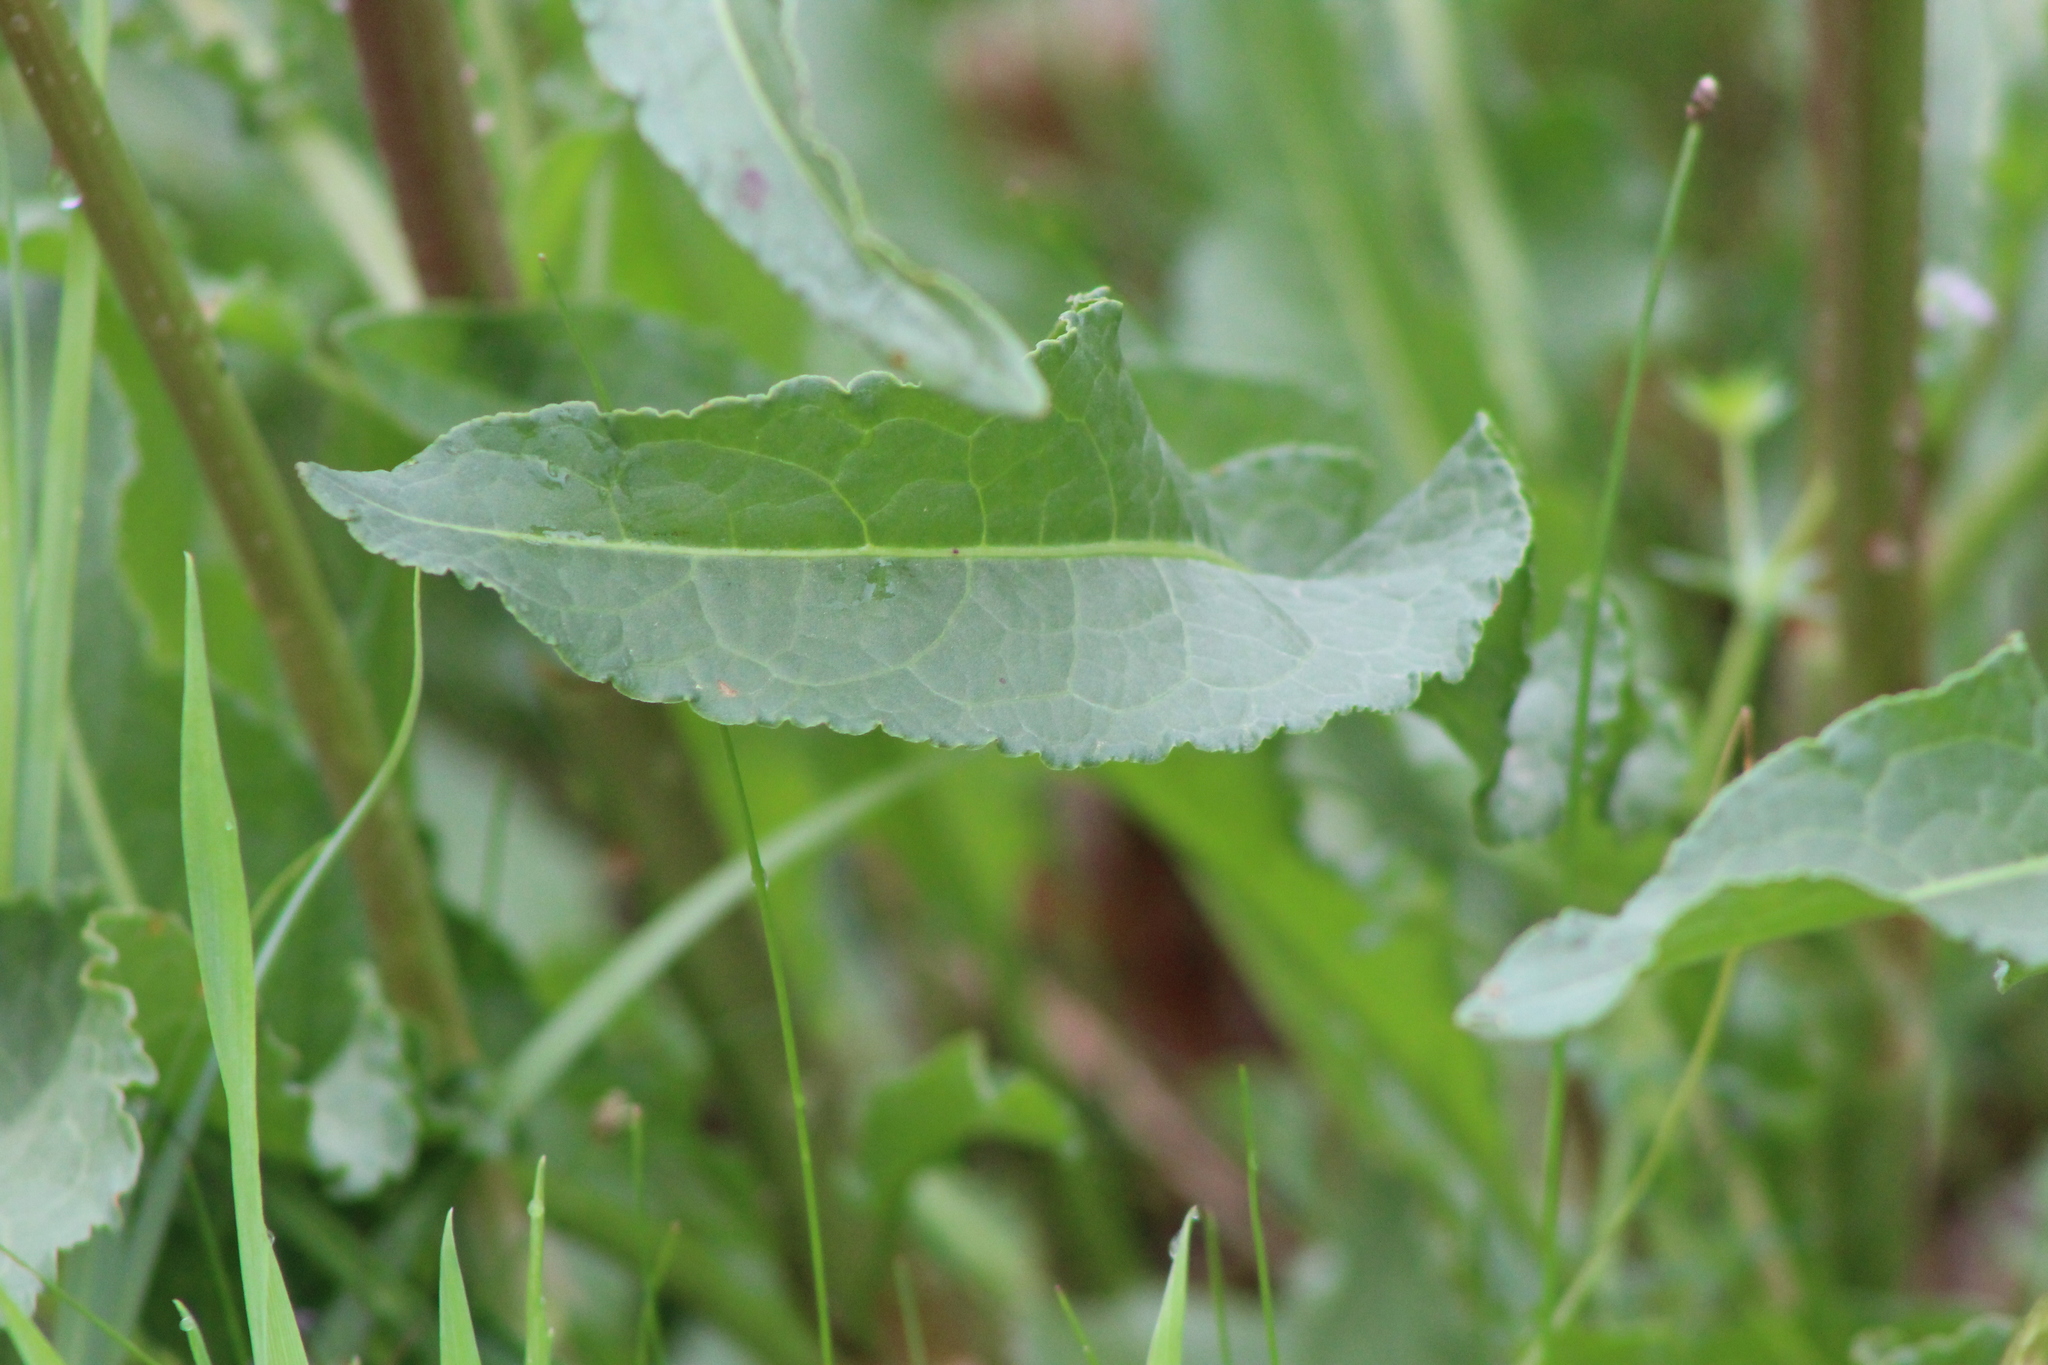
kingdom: Plantae
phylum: Tracheophyta
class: Magnoliopsida
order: Caryophyllales
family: Polygonaceae
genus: Rumex
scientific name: Rumex crispus
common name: Curled dock
